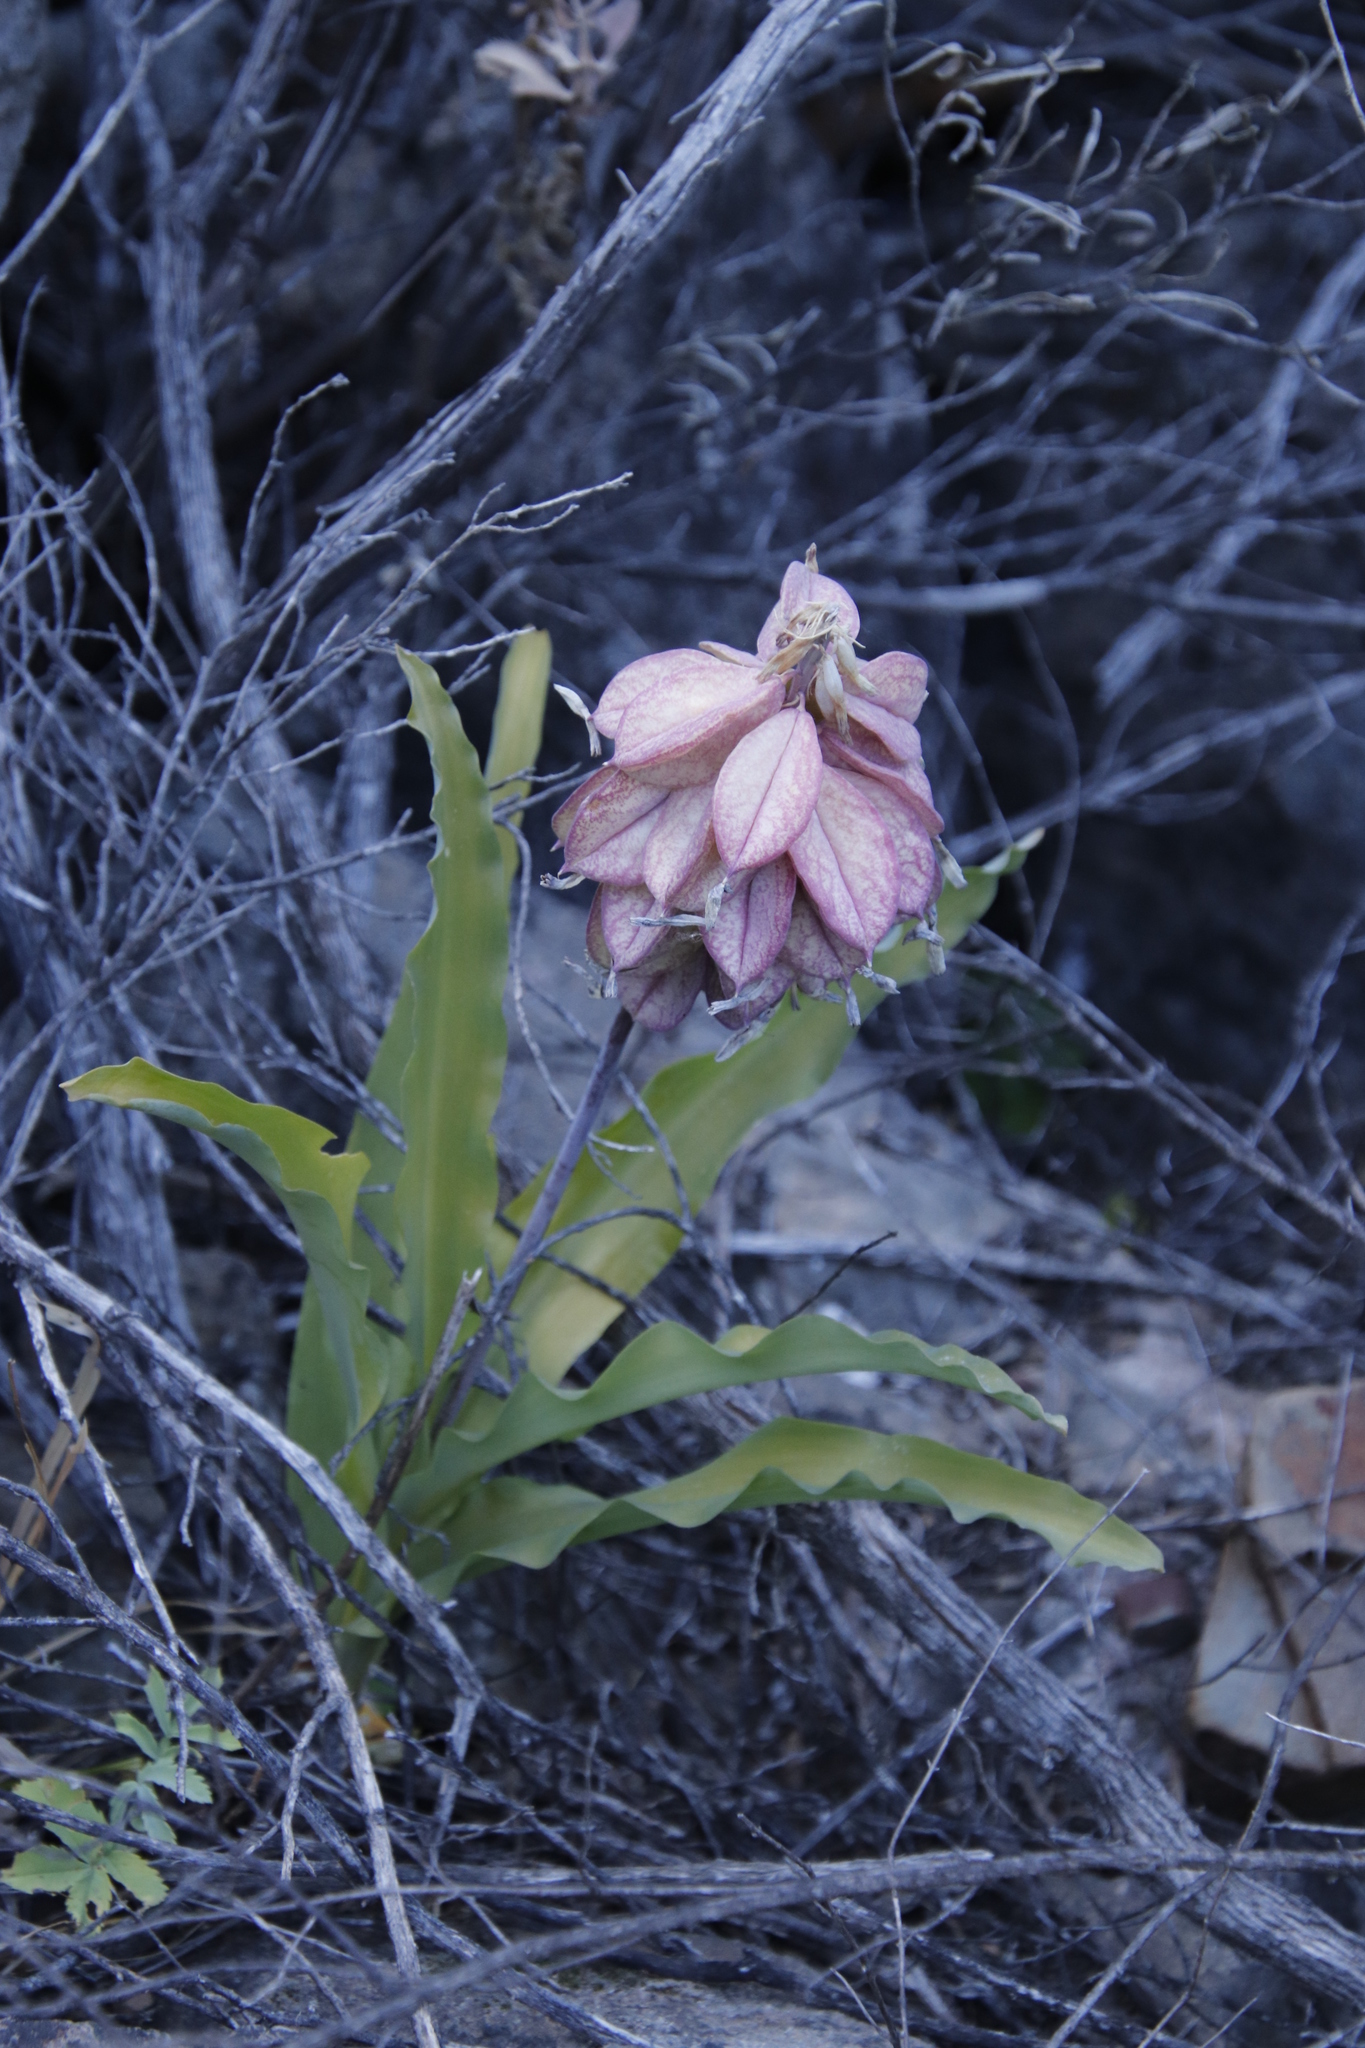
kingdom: Plantae
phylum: Tracheophyta
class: Liliopsida
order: Asparagales
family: Asparagaceae
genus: Veltheimia
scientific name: Veltheimia capensis
